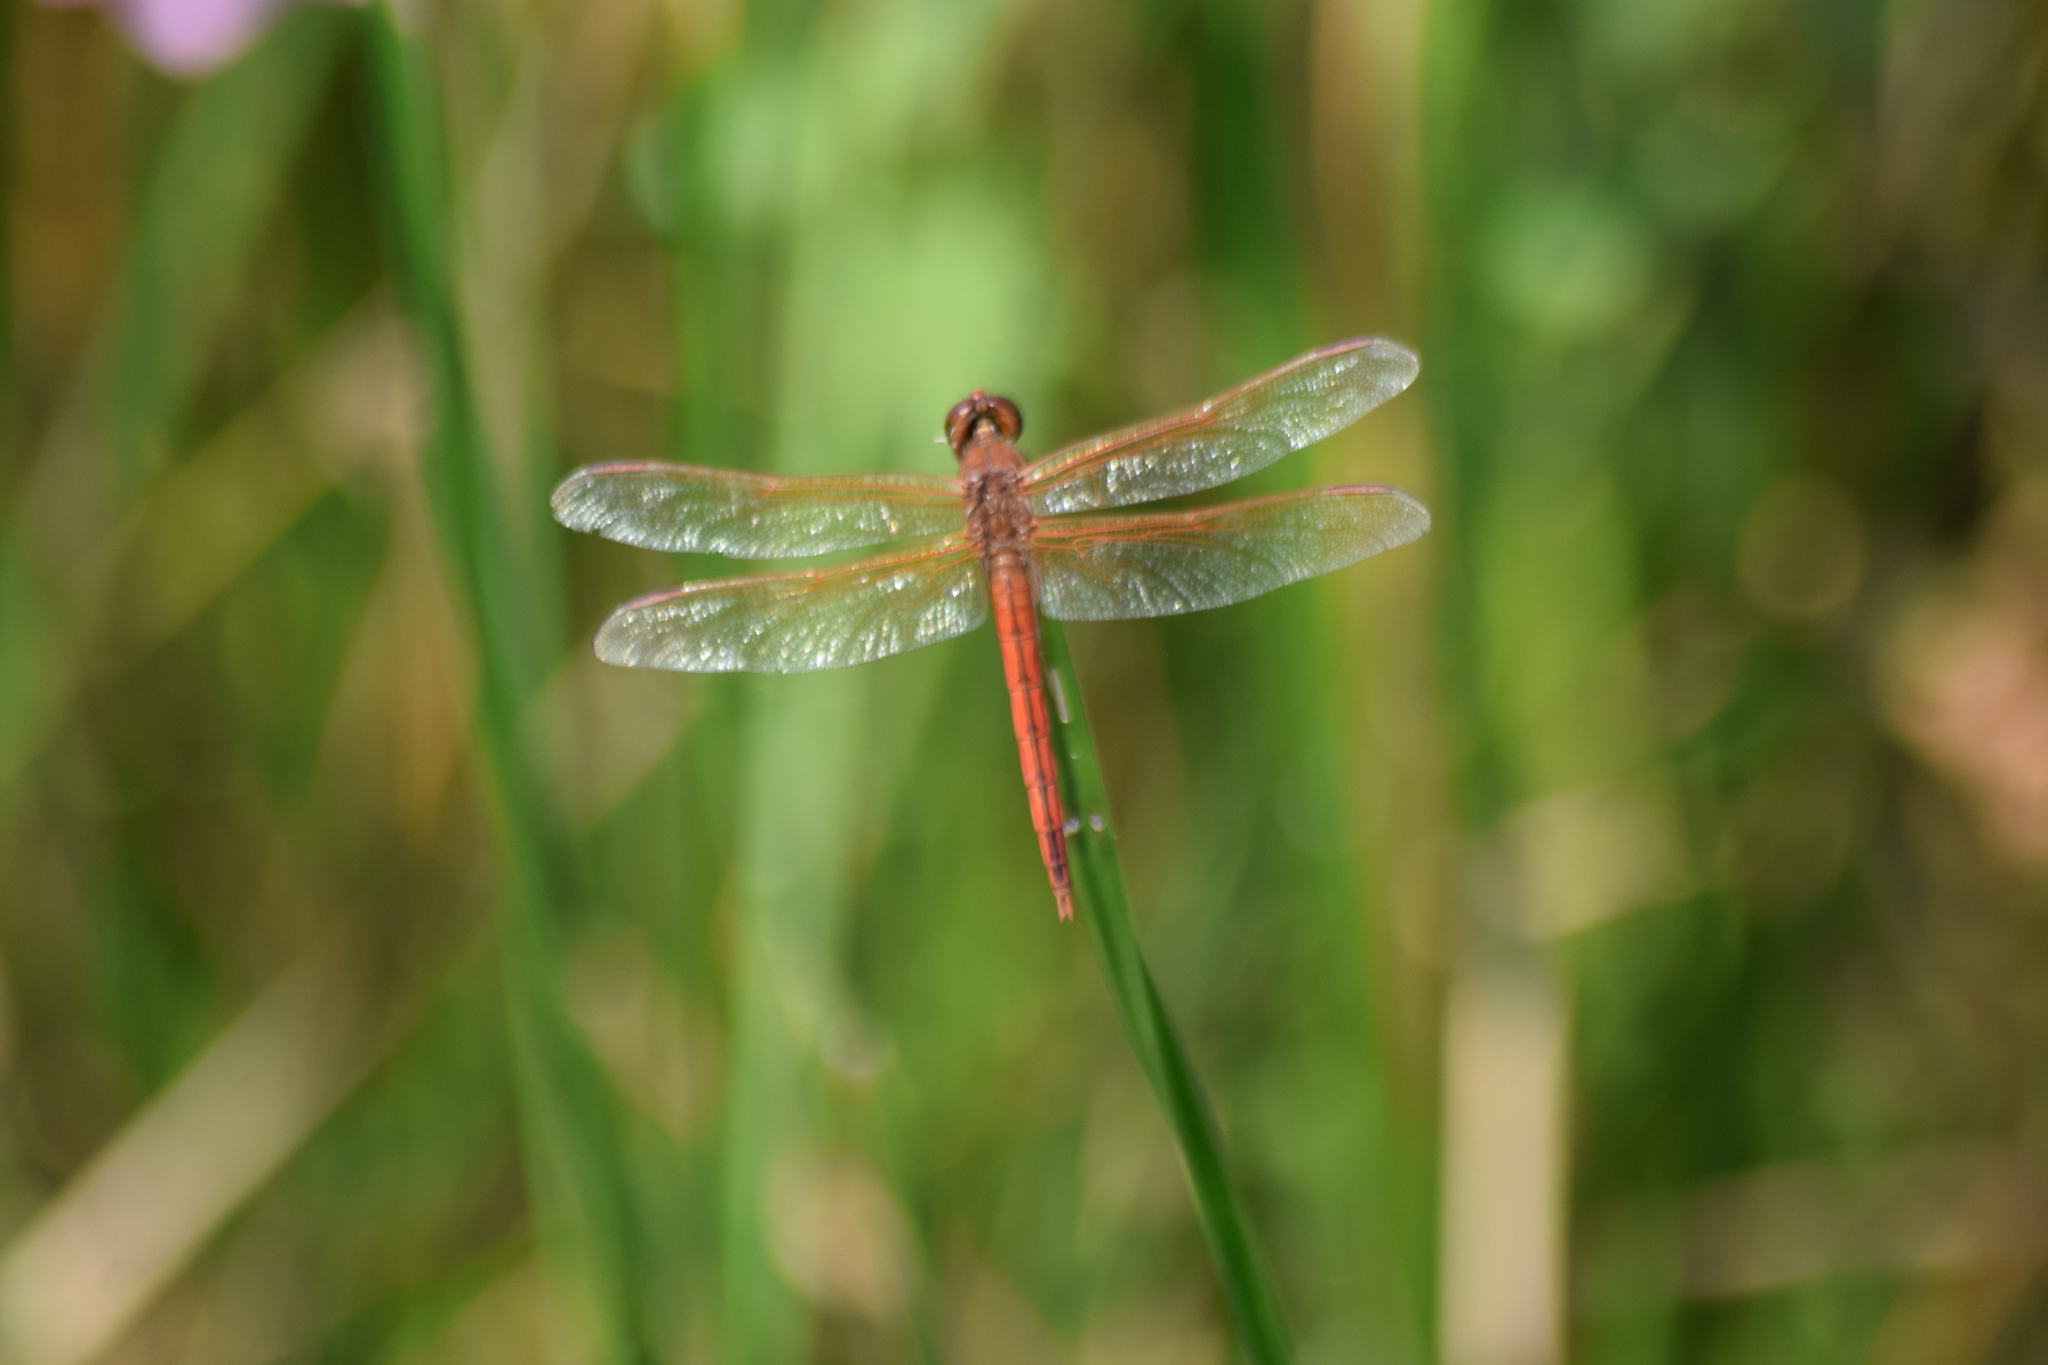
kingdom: Animalia
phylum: Arthropoda
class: Insecta
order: Odonata
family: Libellulidae
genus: Libellula
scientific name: Libellula needhami
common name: Needham's skimmer
